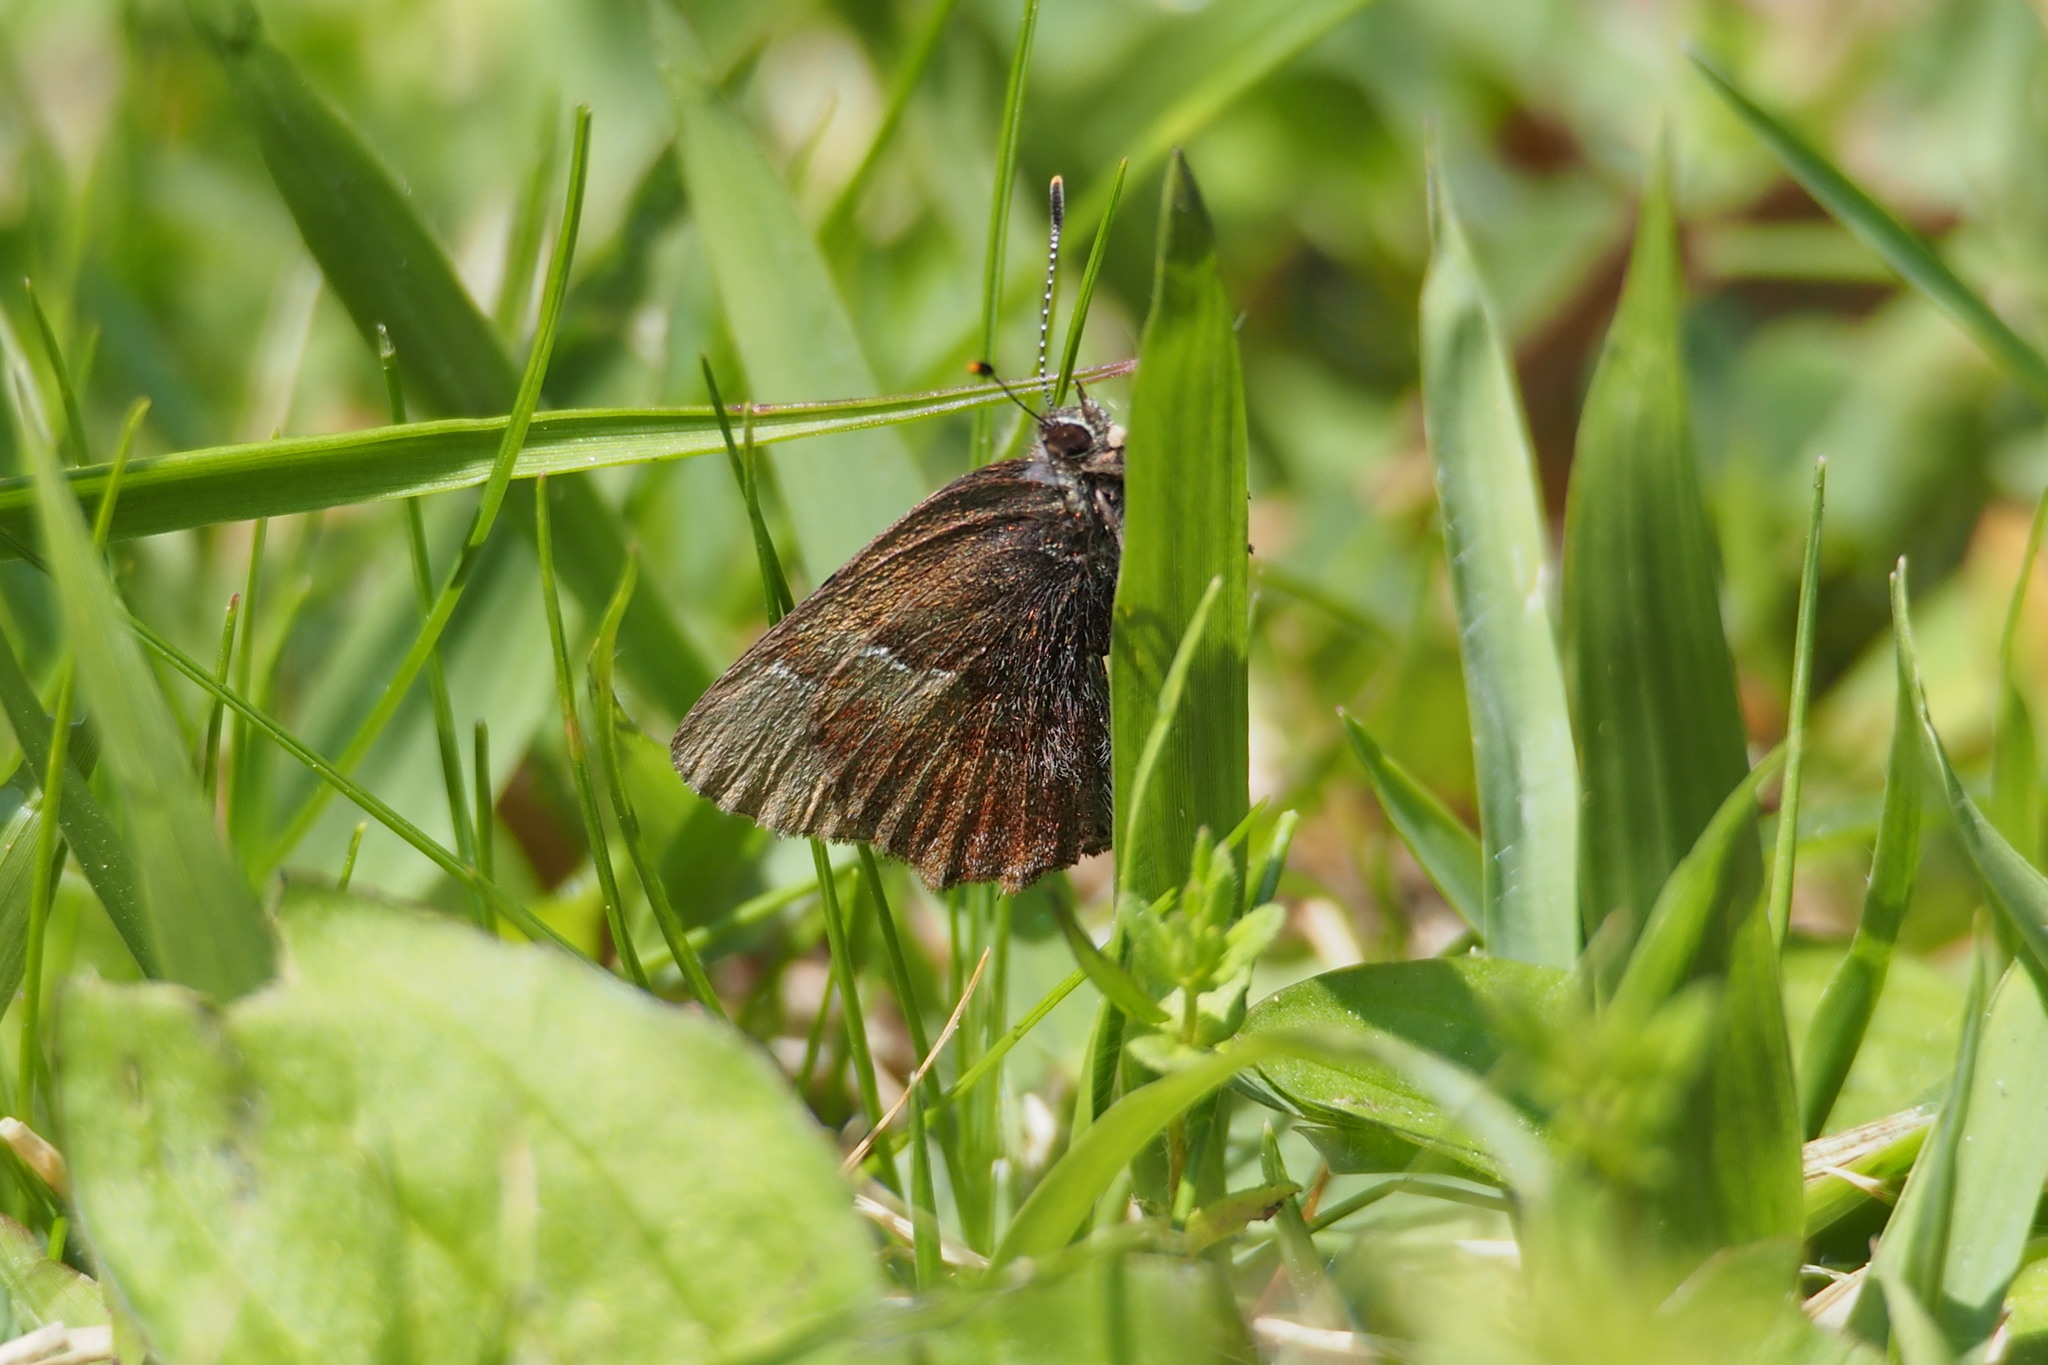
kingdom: Animalia
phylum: Arthropoda
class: Insecta
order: Lepidoptera
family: Lycaenidae
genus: Ginzia
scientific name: Ginzia frivaldsky
